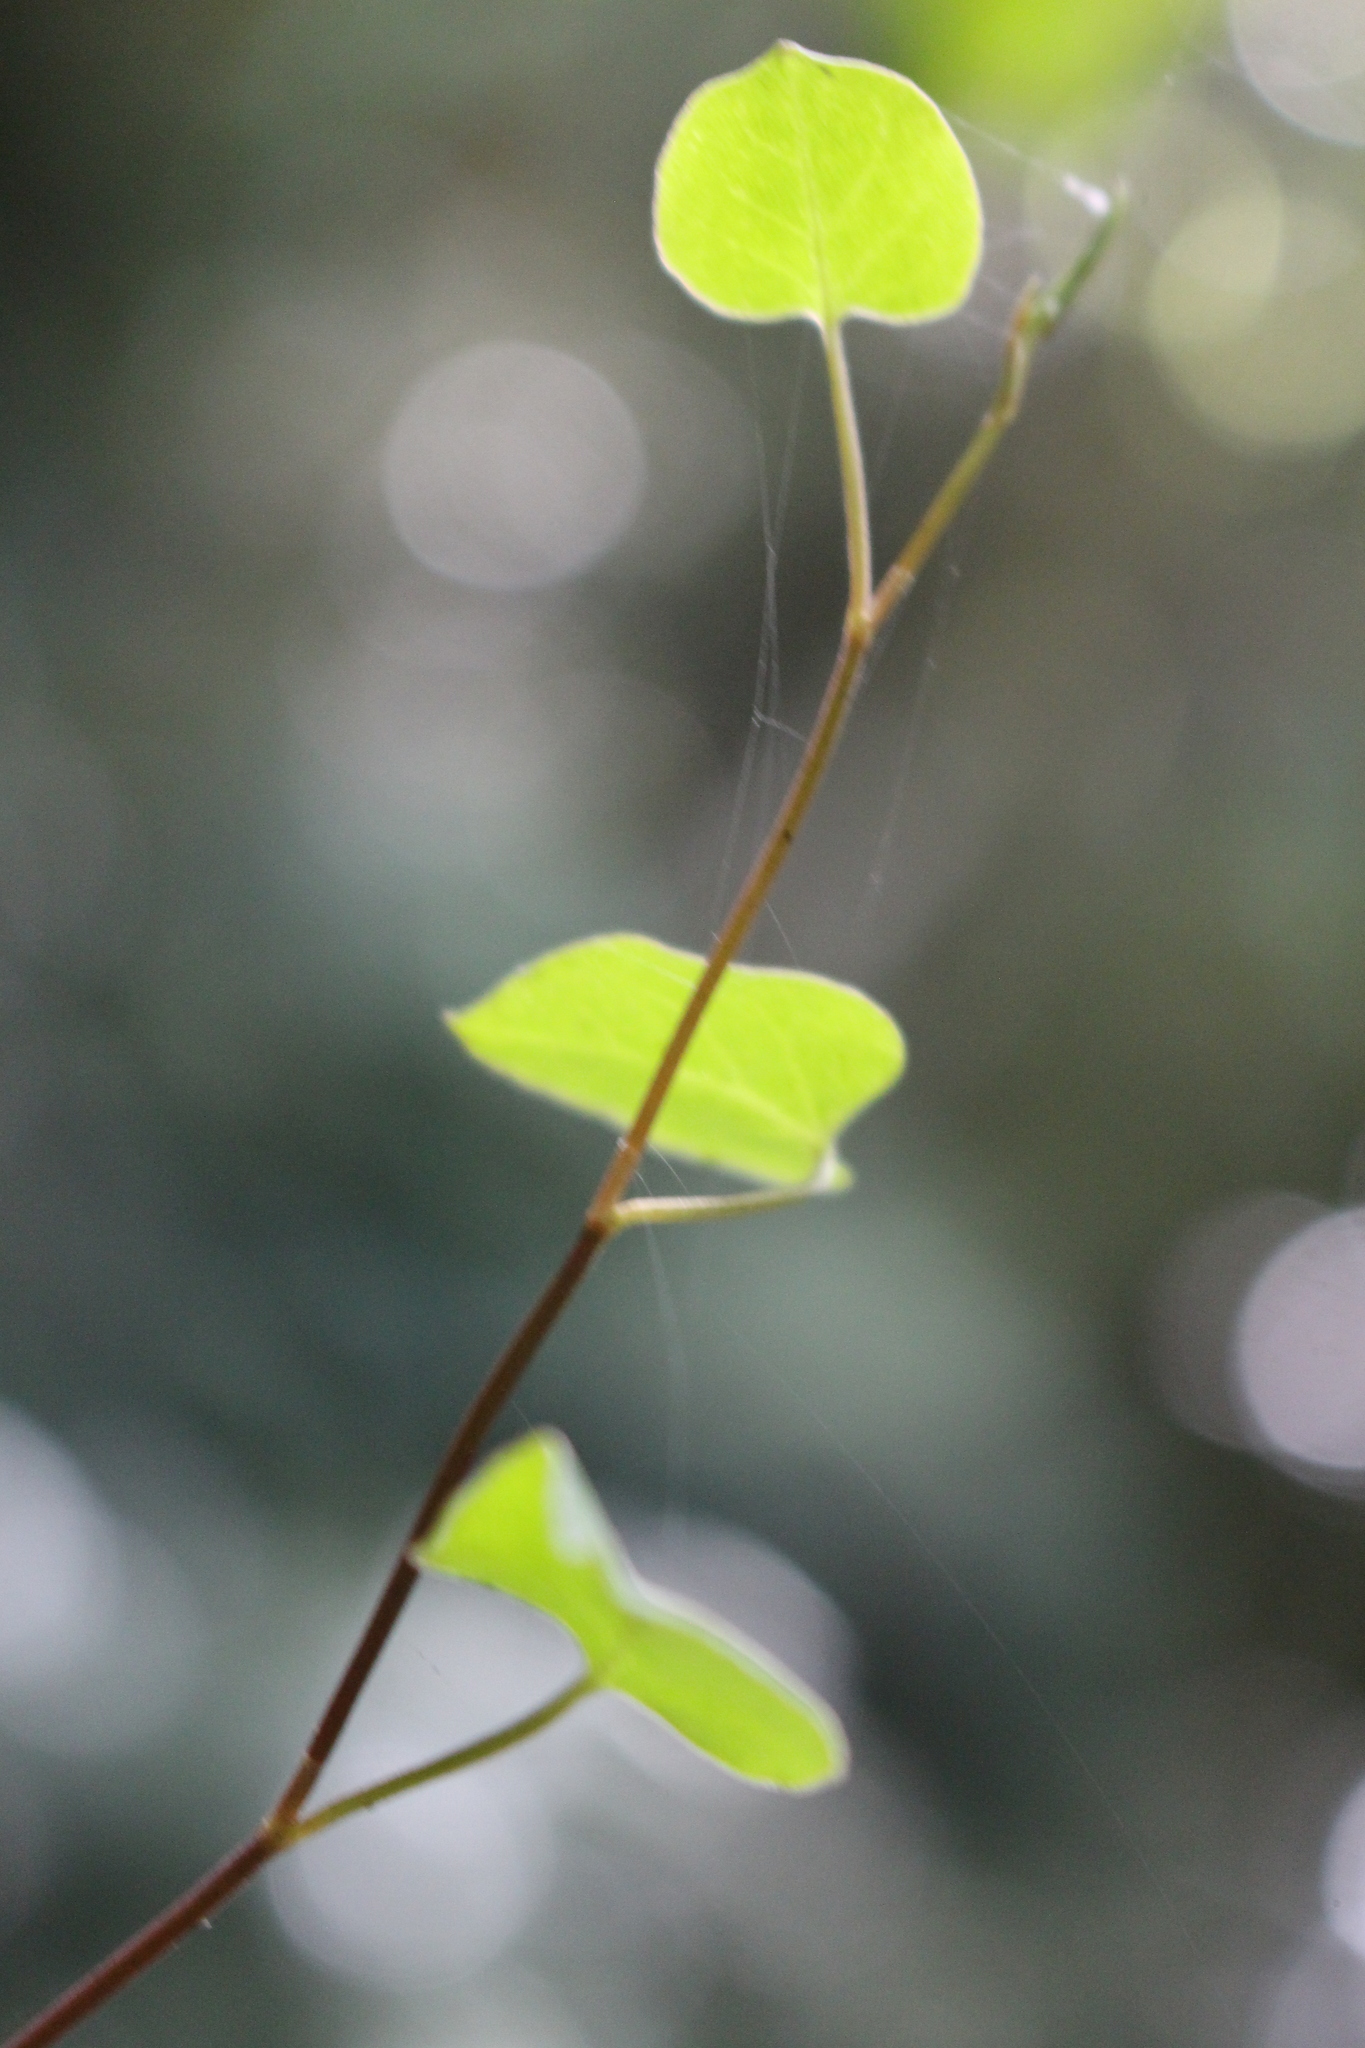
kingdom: Plantae
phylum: Tracheophyta
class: Magnoliopsida
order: Caryophyllales
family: Polygonaceae
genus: Muehlenbeckia
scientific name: Muehlenbeckia australis
